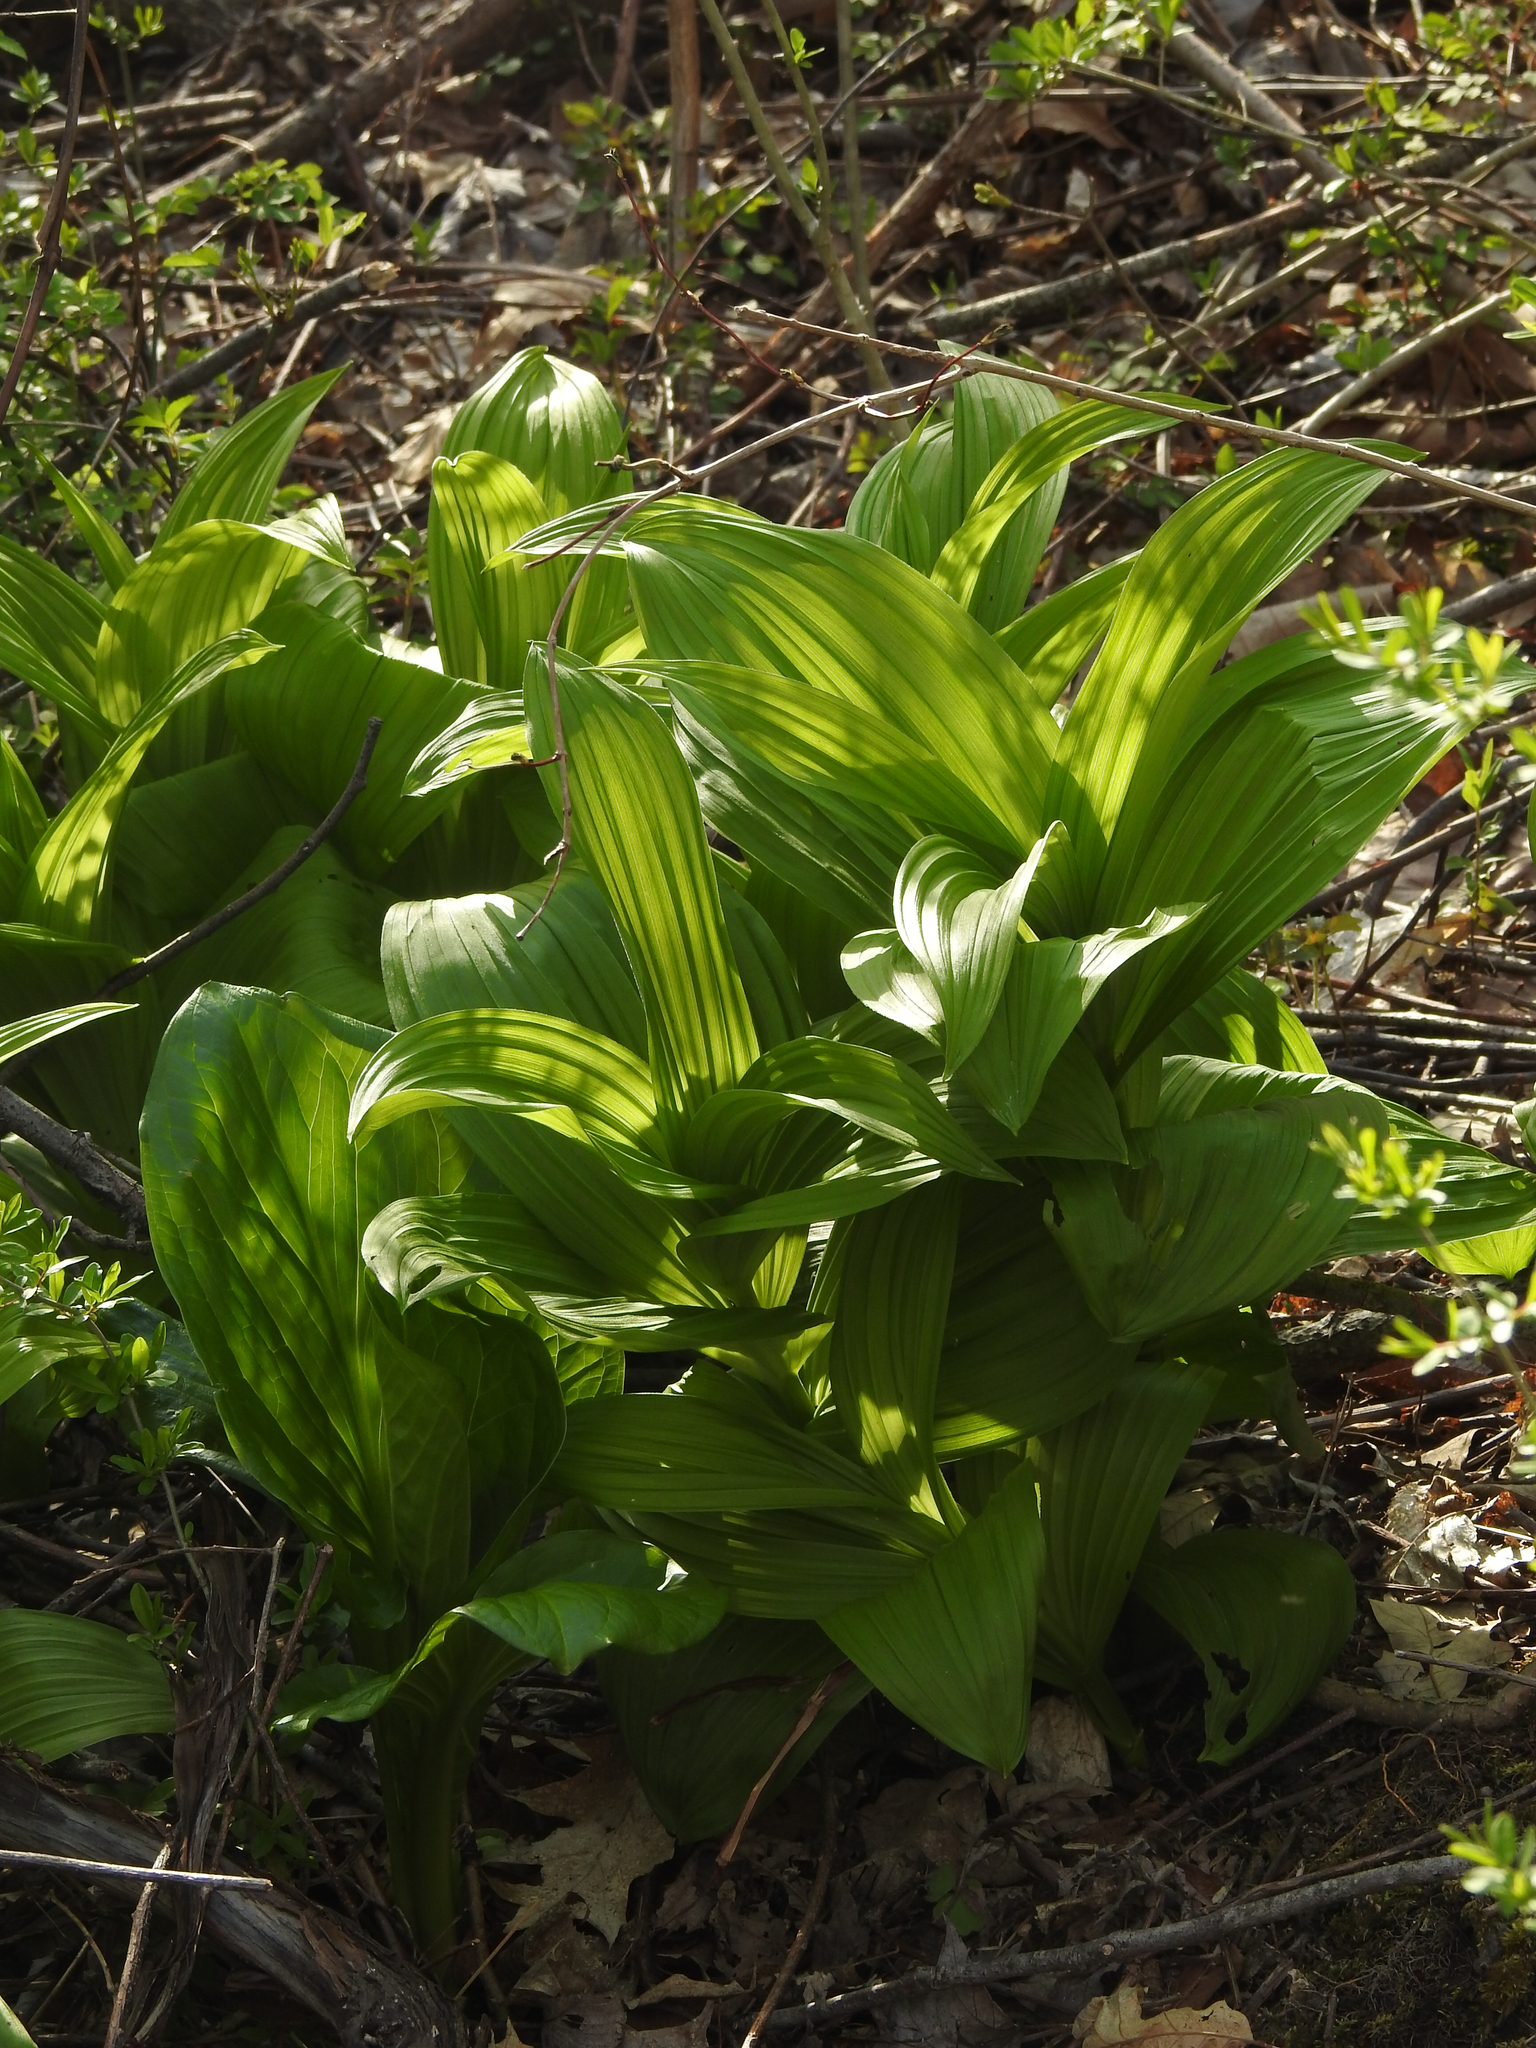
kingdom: Plantae
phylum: Tracheophyta
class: Liliopsida
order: Liliales
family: Melanthiaceae
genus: Veratrum
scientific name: Veratrum viride
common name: American false hellebore
